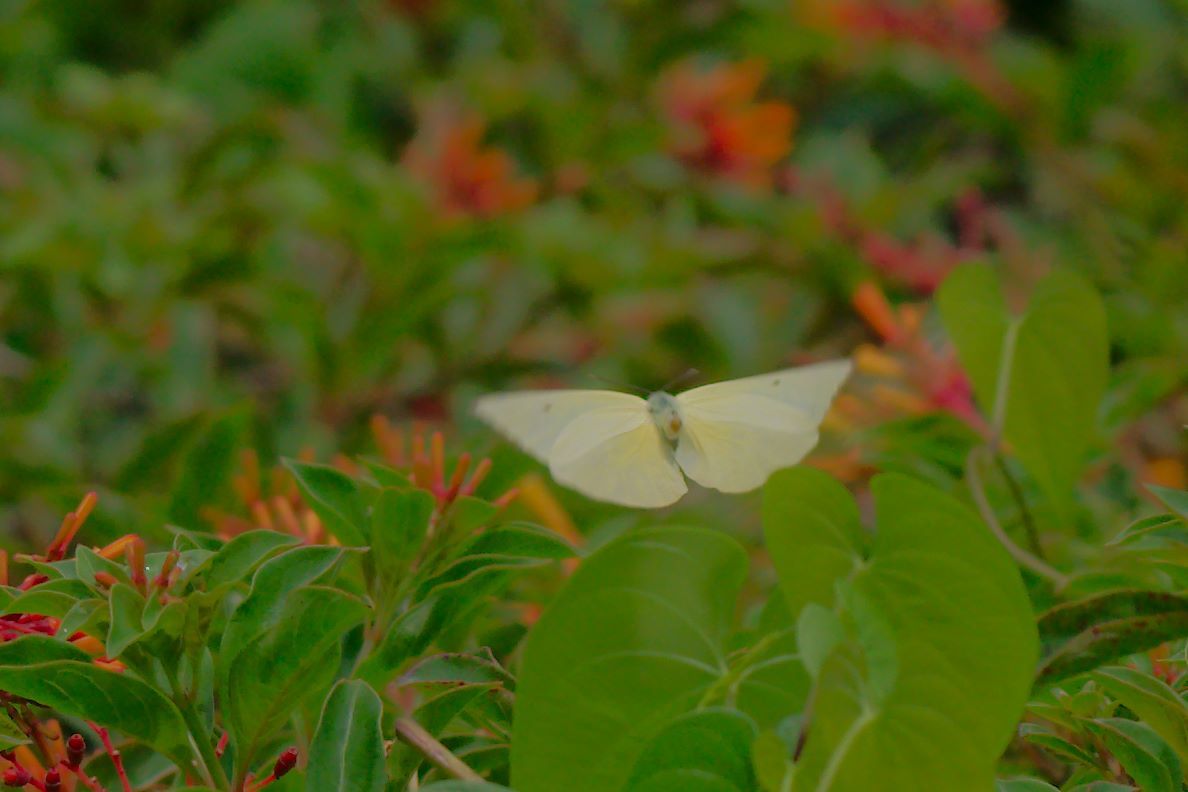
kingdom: Animalia
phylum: Arthropoda
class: Insecta
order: Lepidoptera
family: Pieridae
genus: Aphrissa
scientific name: Aphrissa statira
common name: Statira sulphur
